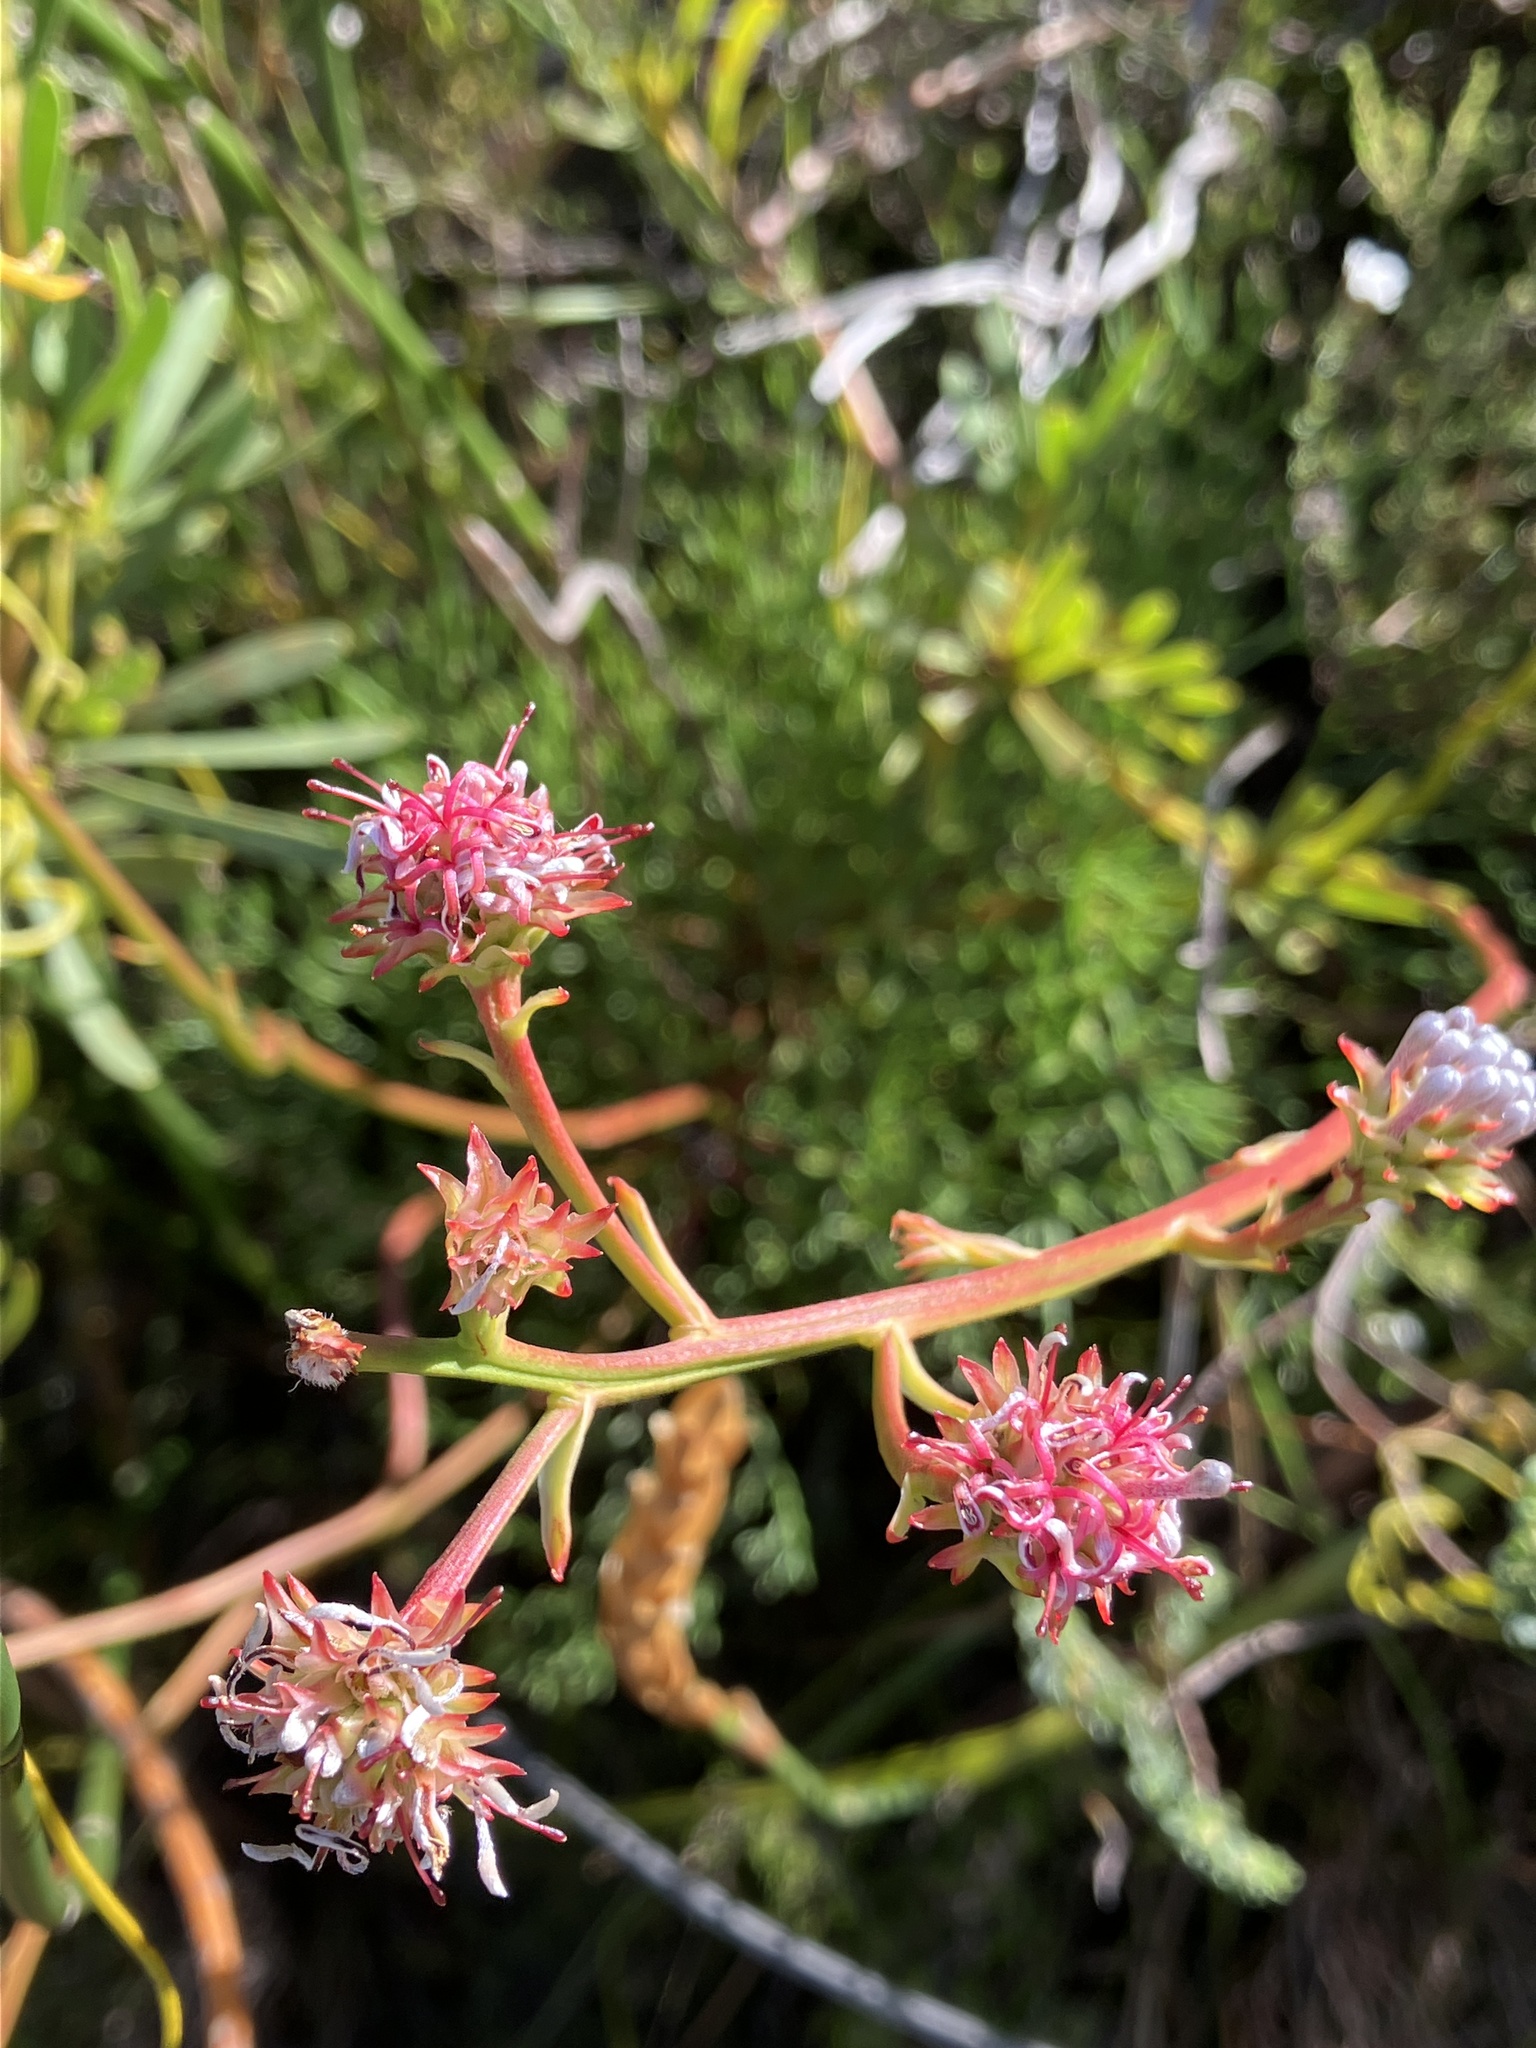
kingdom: Plantae
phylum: Tracheophyta
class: Magnoliopsida
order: Proteales
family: Proteaceae
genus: Serruria
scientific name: Serruria elongata
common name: Long-stalk spiderhead
